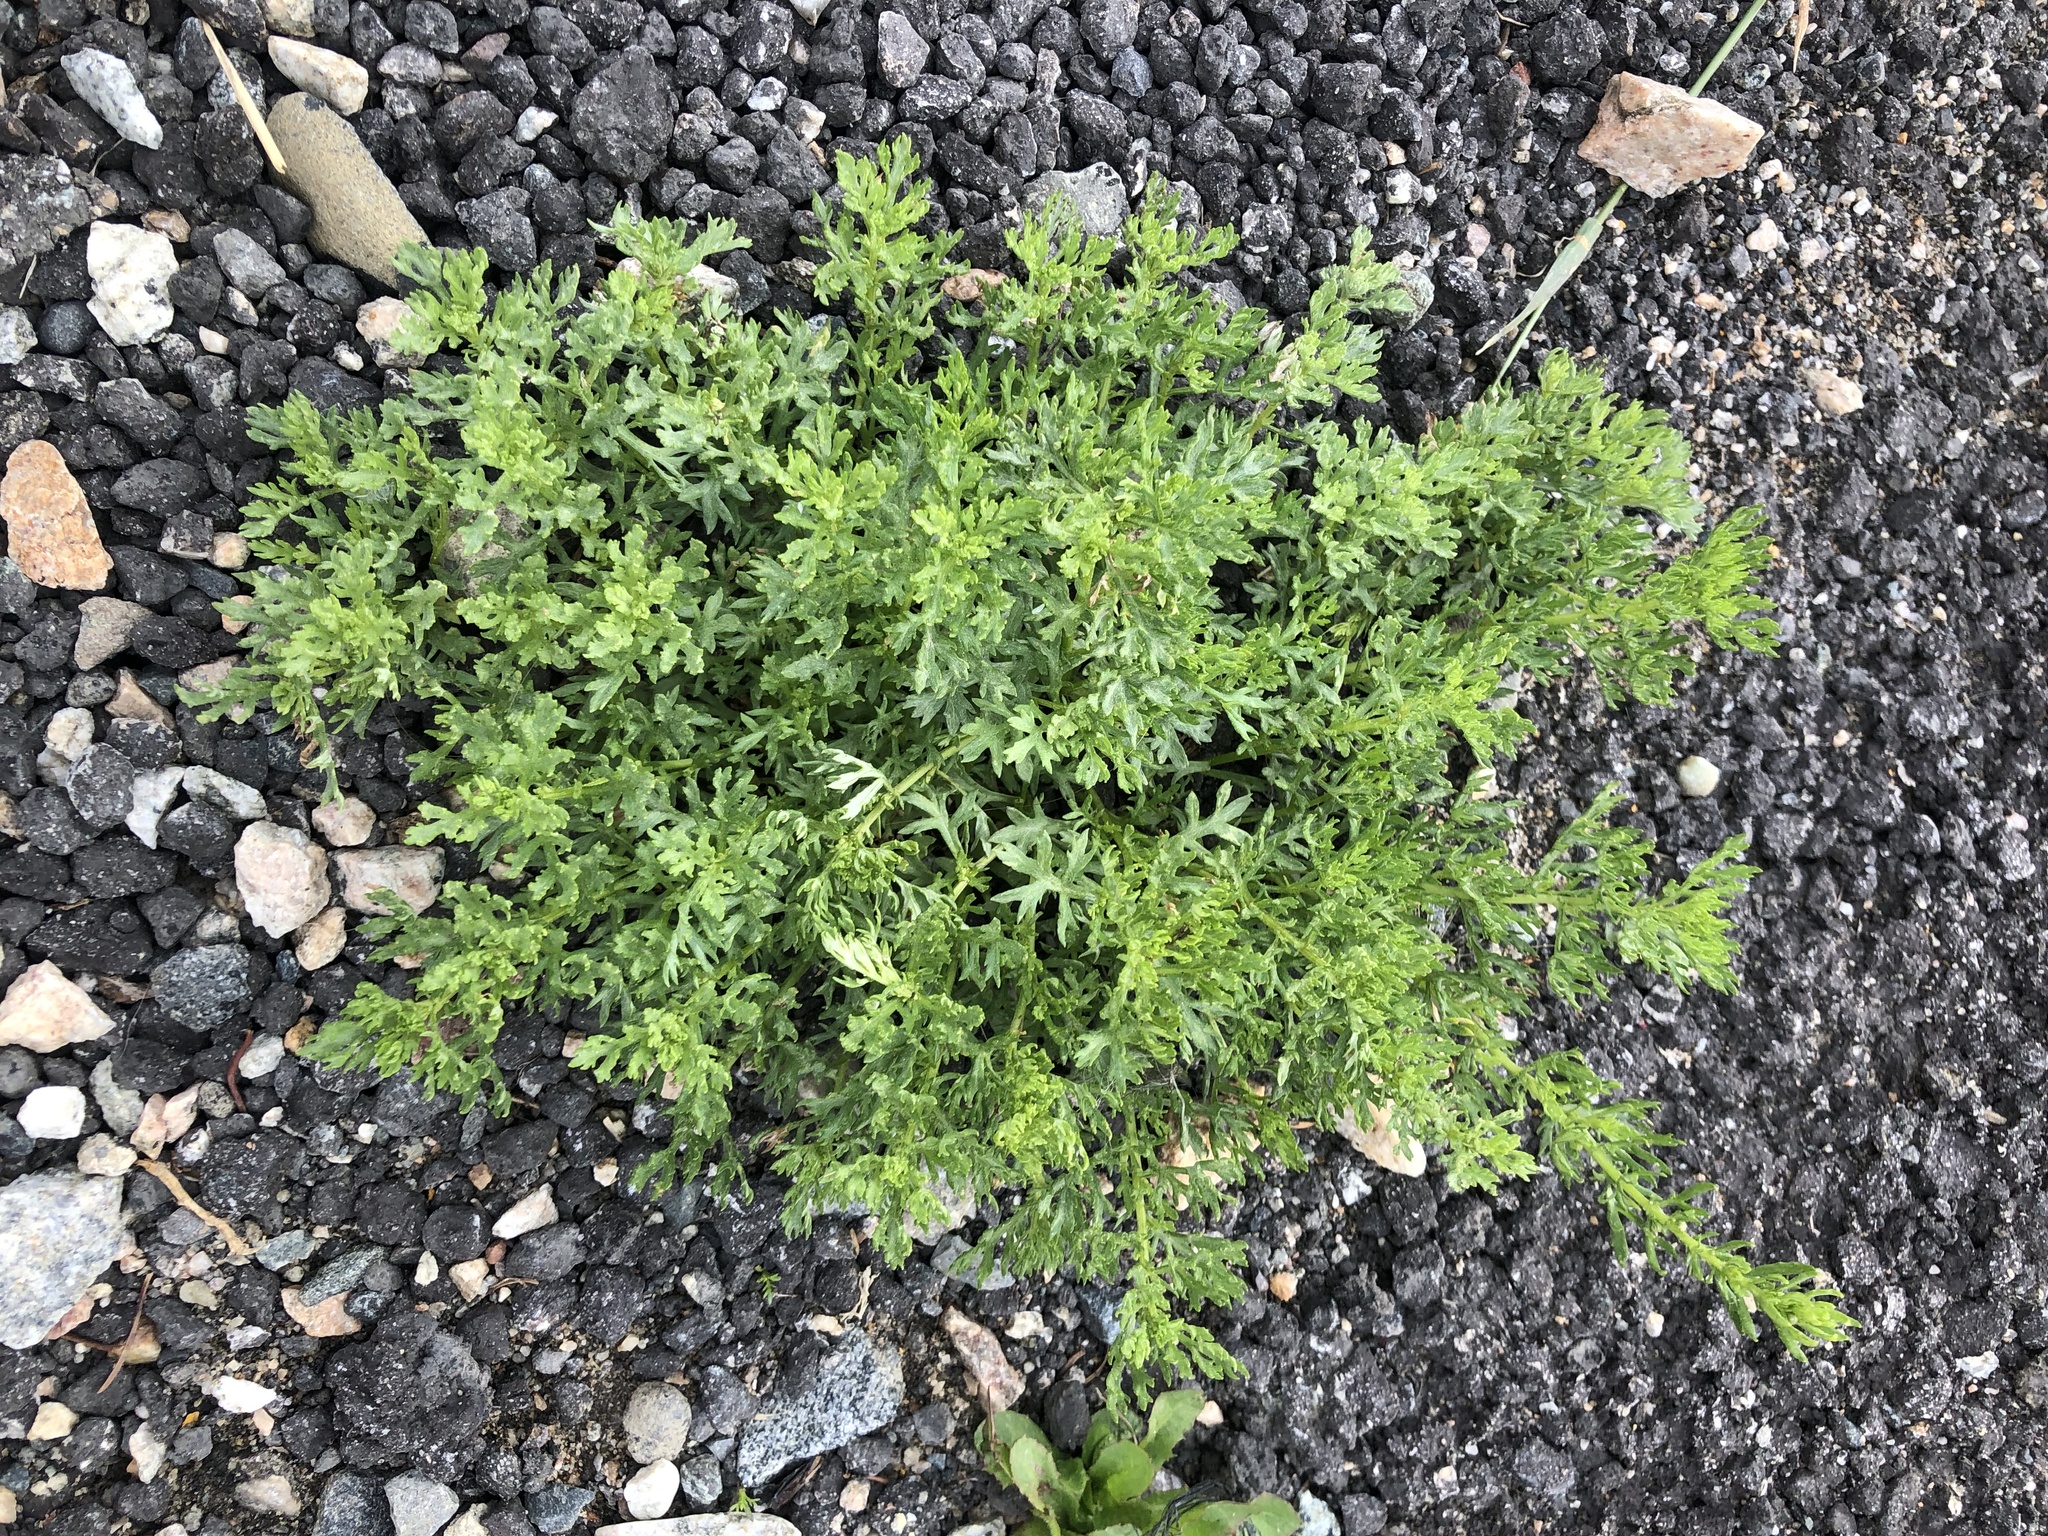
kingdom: Plantae
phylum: Tracheophyta
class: Magnoliopsida
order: Brassicales
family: Brassicaceae
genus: Lepidium
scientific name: Lepidium didymum
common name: Lesser swinecress
